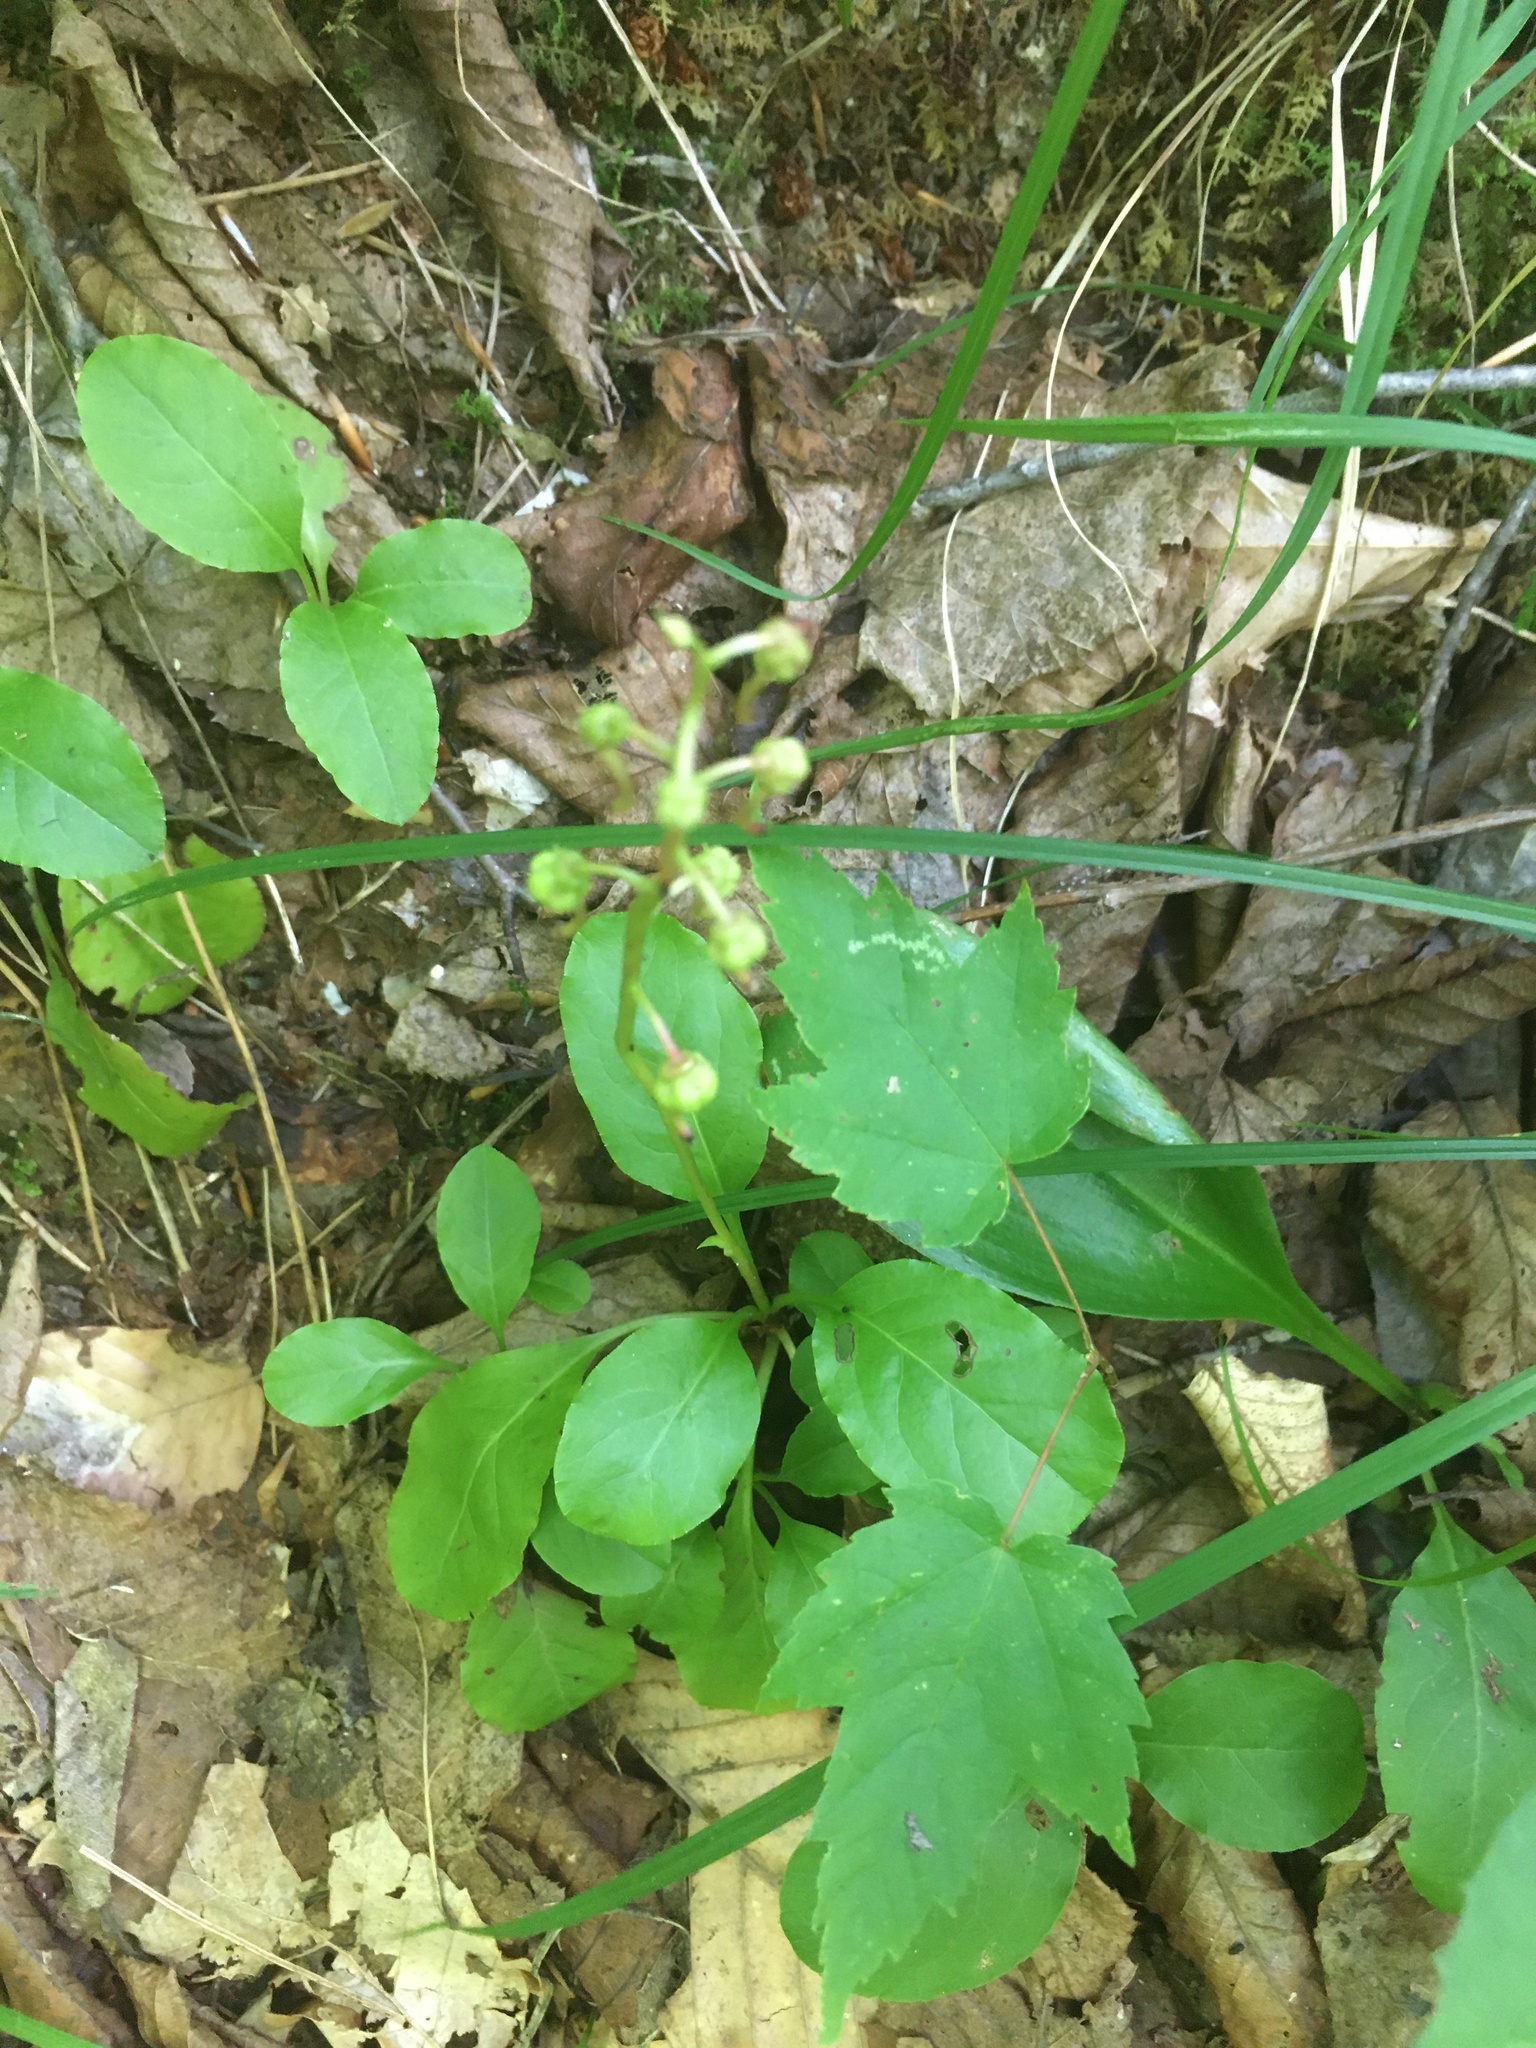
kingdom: Plantae
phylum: Tracheophyta
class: Magnoliopsida
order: Ericales
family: Ericaceae
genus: Pyrola
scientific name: Pyrola elliptica
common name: Shinleaf
